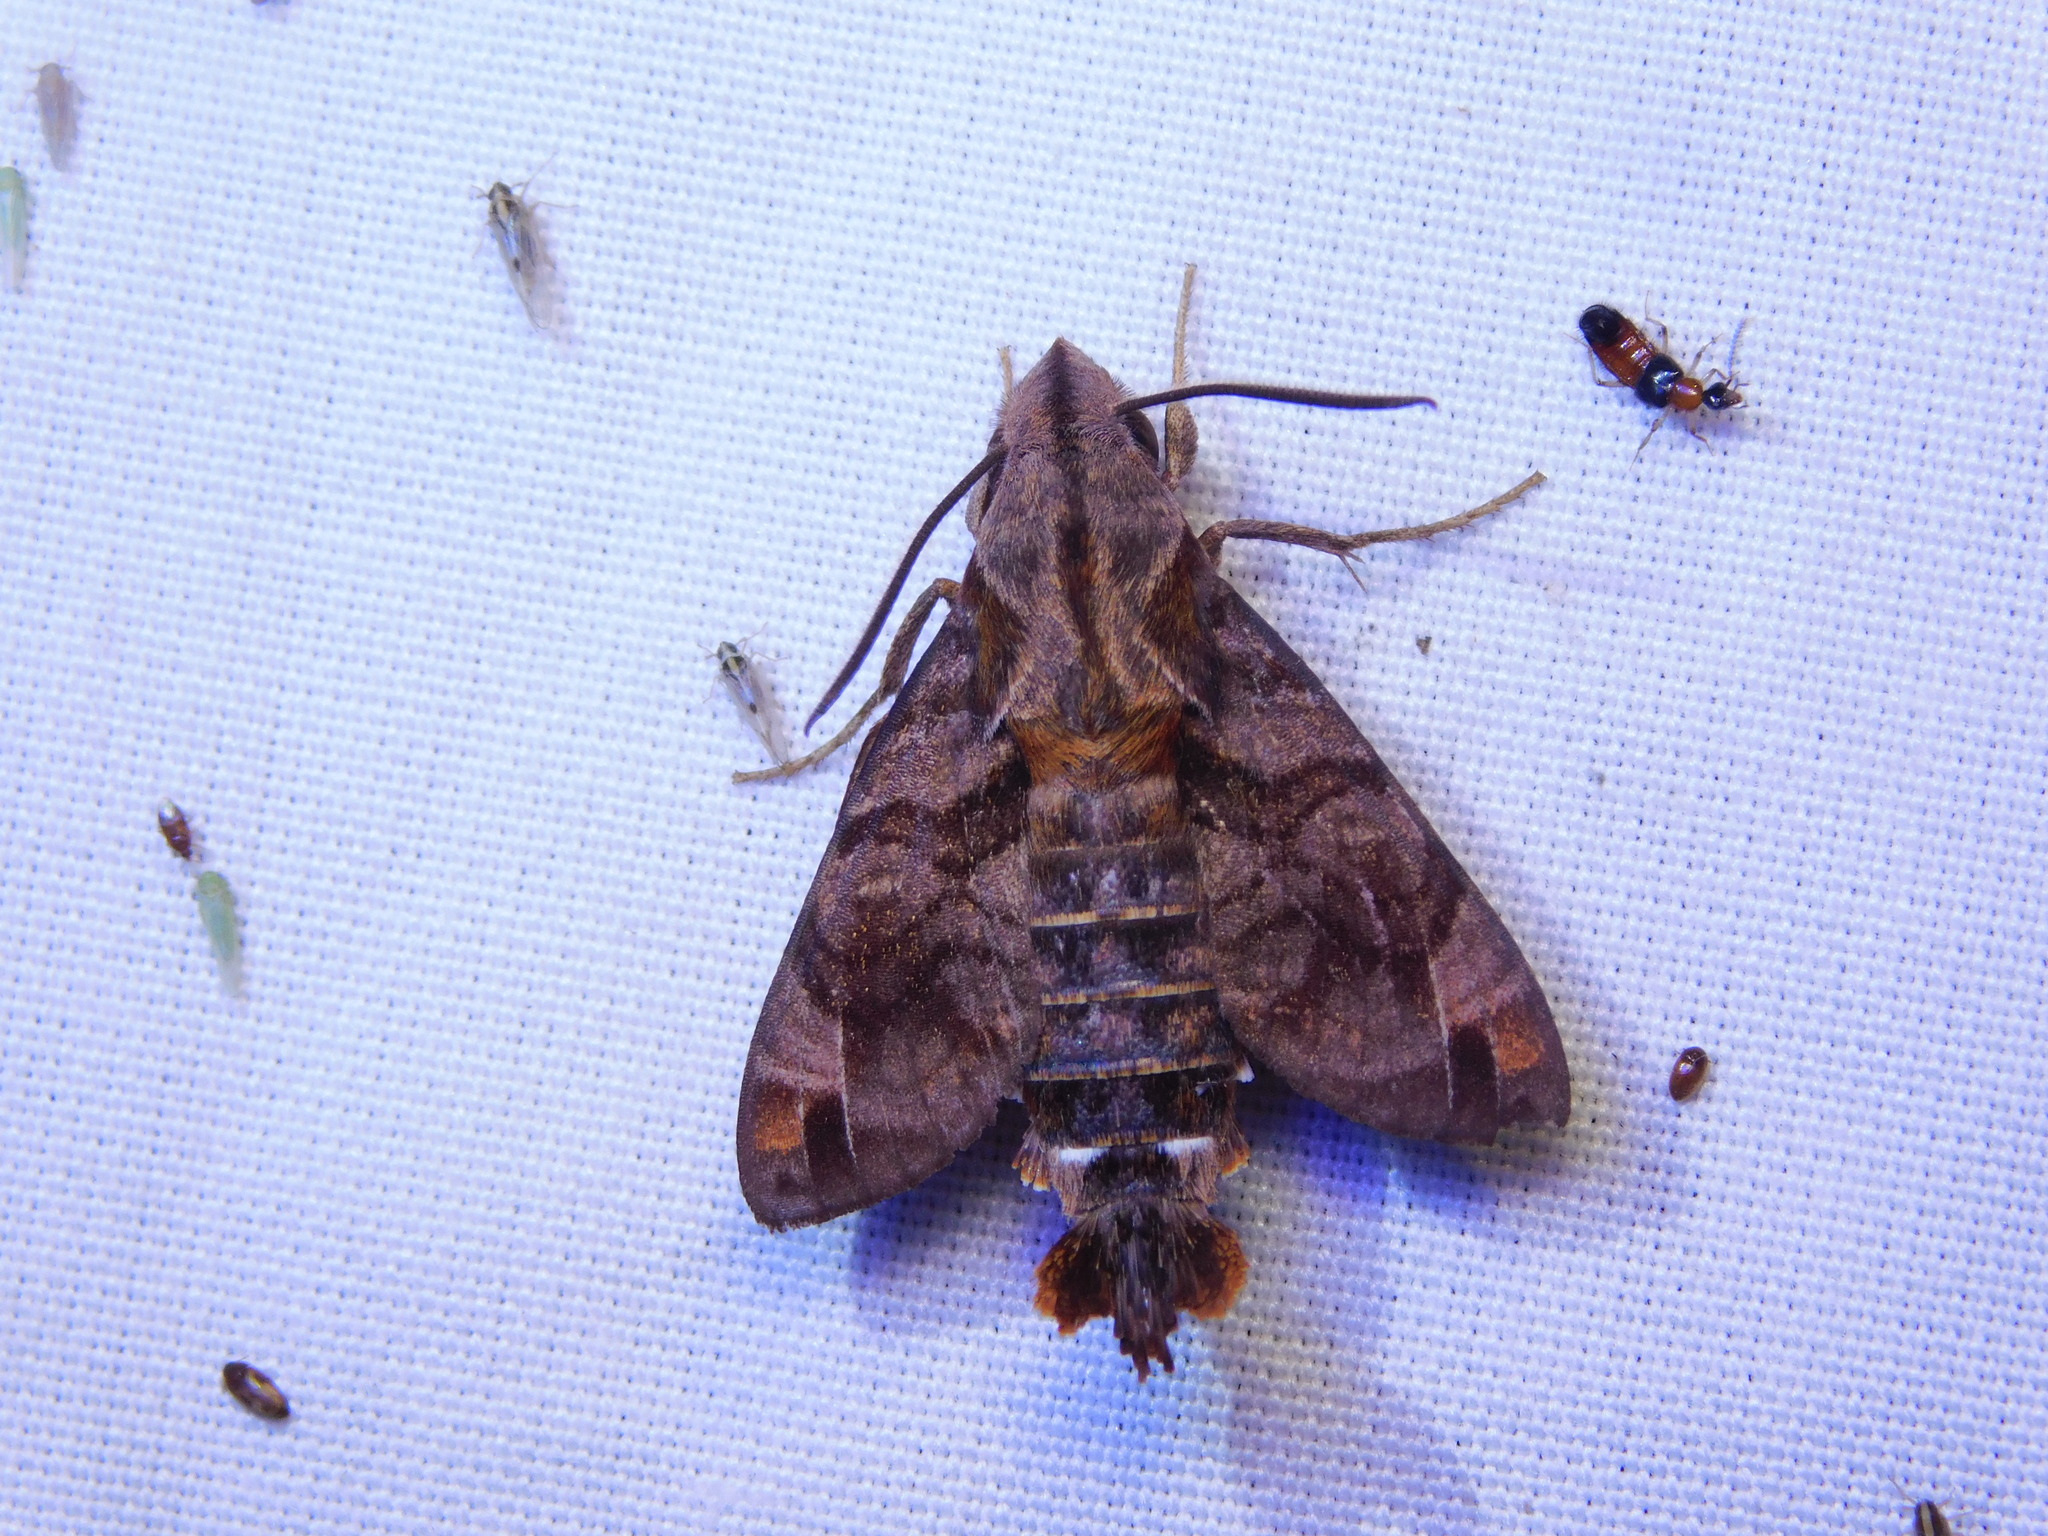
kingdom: Animalia
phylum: Arthropoda
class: Insecta
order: Lepidoptera
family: Sphingidae
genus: Macroglossum
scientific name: Macroglossum pyrrhosticta
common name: Hummingbird hawk moth
